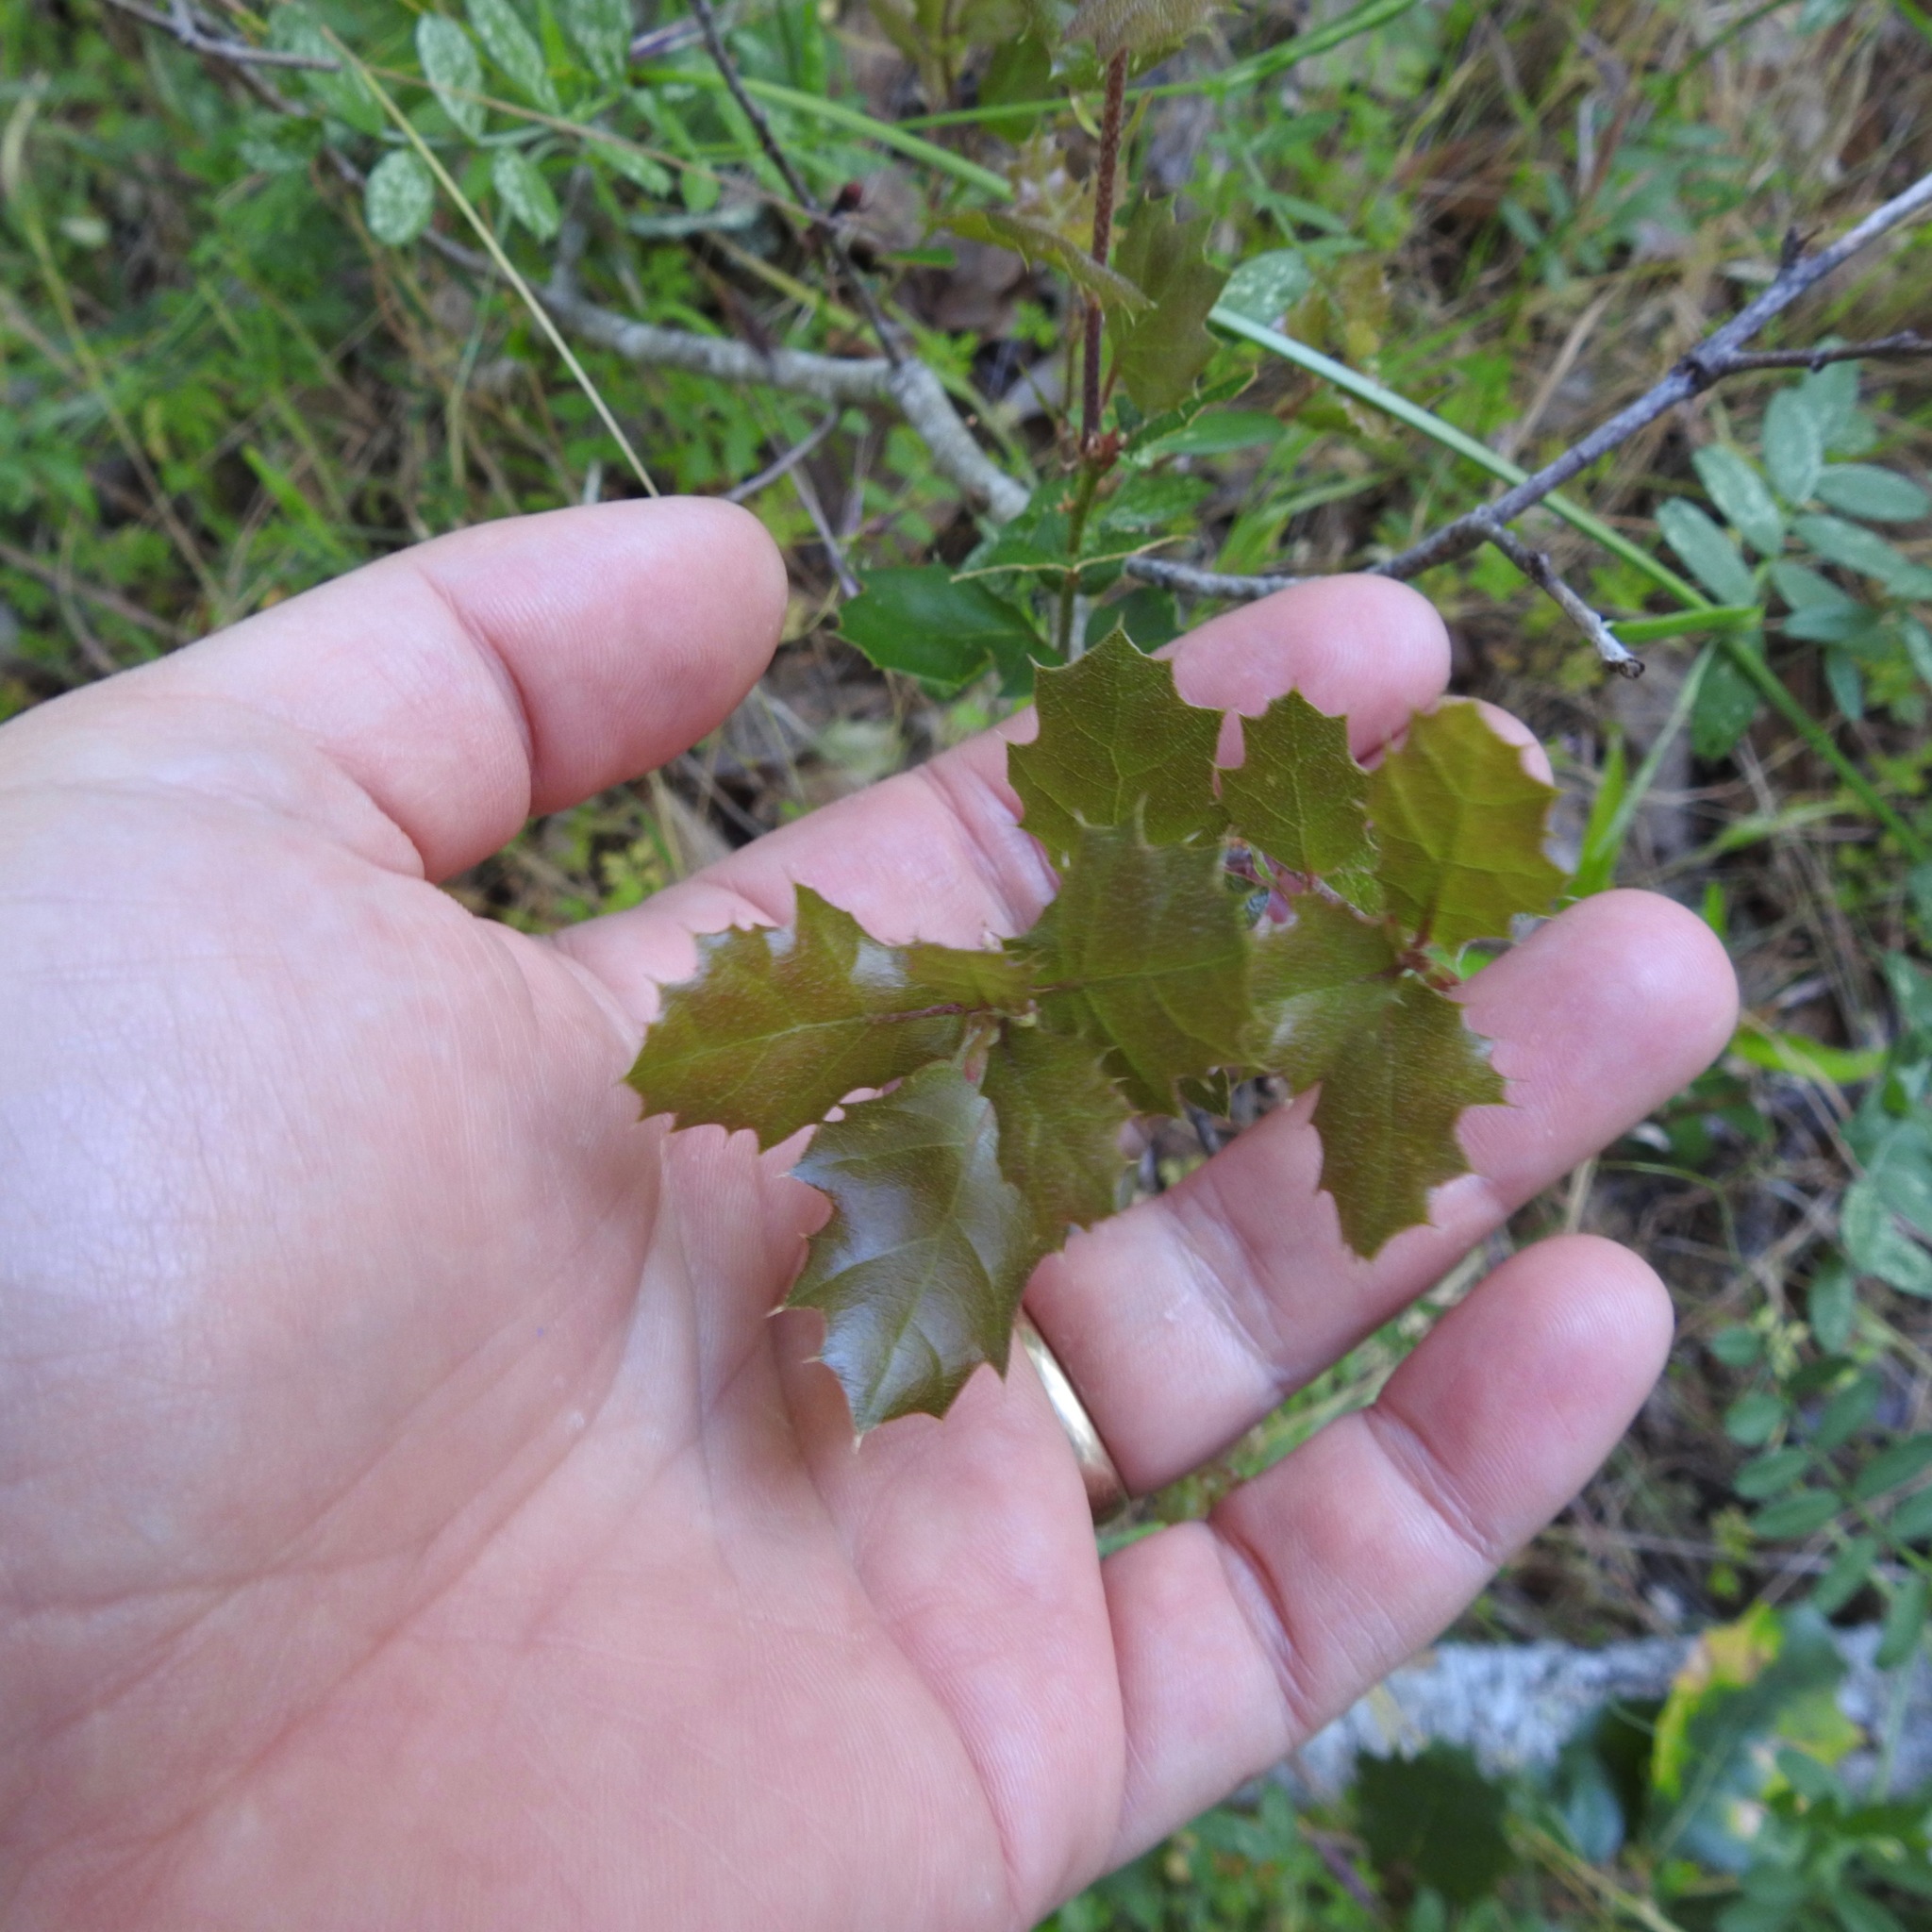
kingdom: Plantae
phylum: Tracheophyta
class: Magnoliopsida
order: Fagales
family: Fagaceae
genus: Quercus
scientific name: Quercus berberidifolia
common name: California scrub oak
